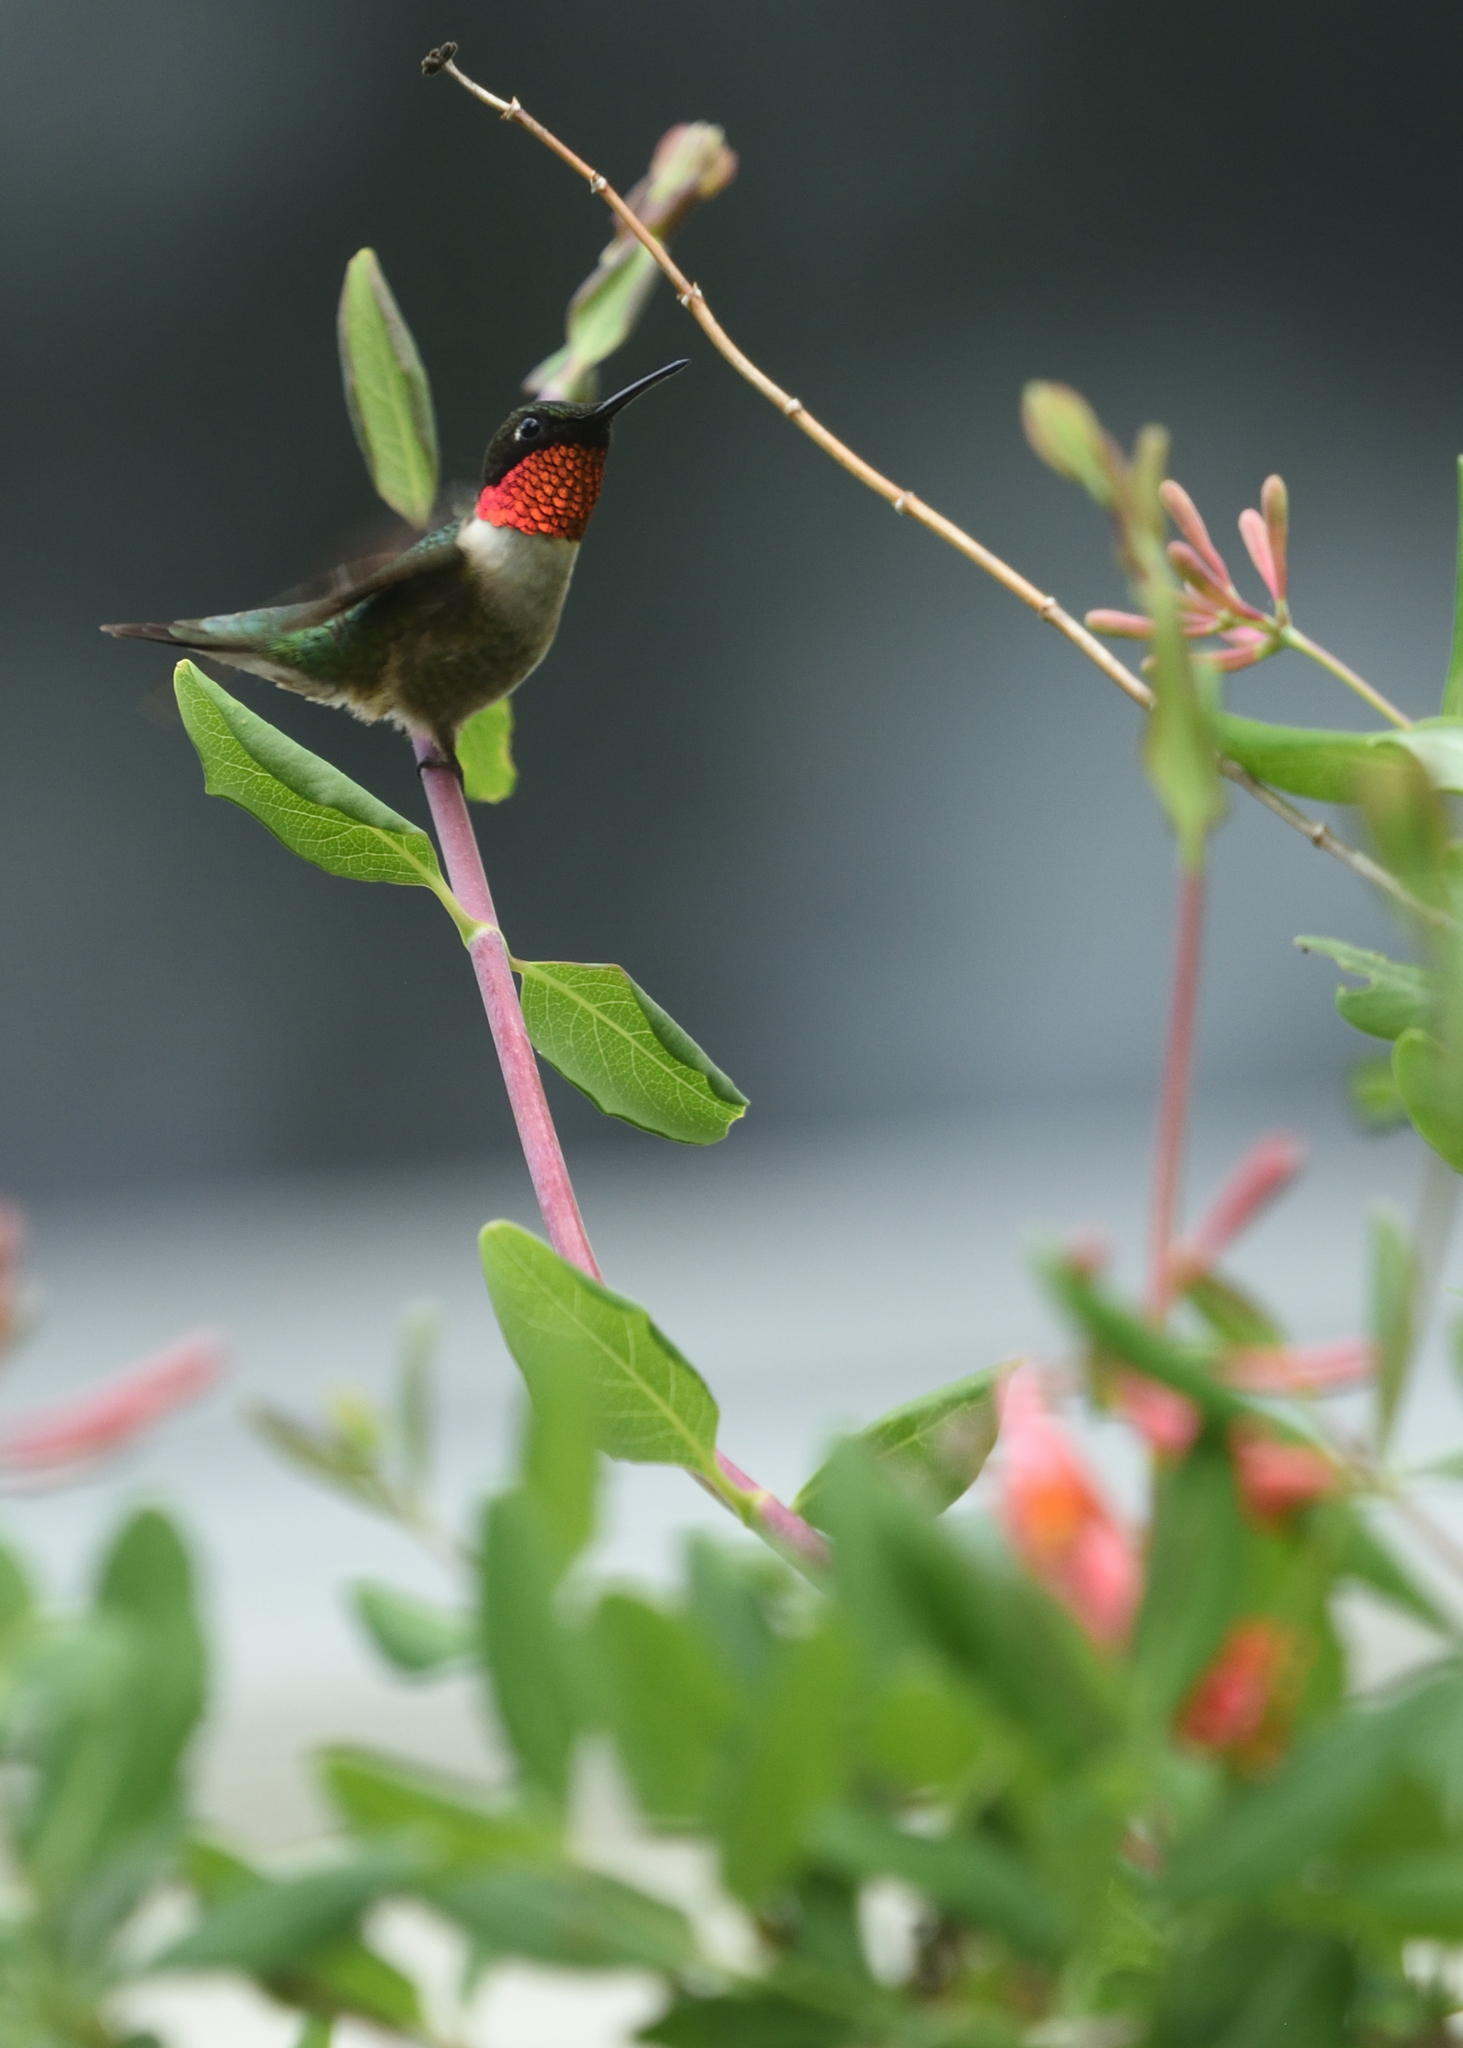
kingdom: Animalia
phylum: Chordata
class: Aves
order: Apodiformes
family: Trochilidae
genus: Archilochus
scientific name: Archilochus colubris
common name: Ruby-throated hummingbird
